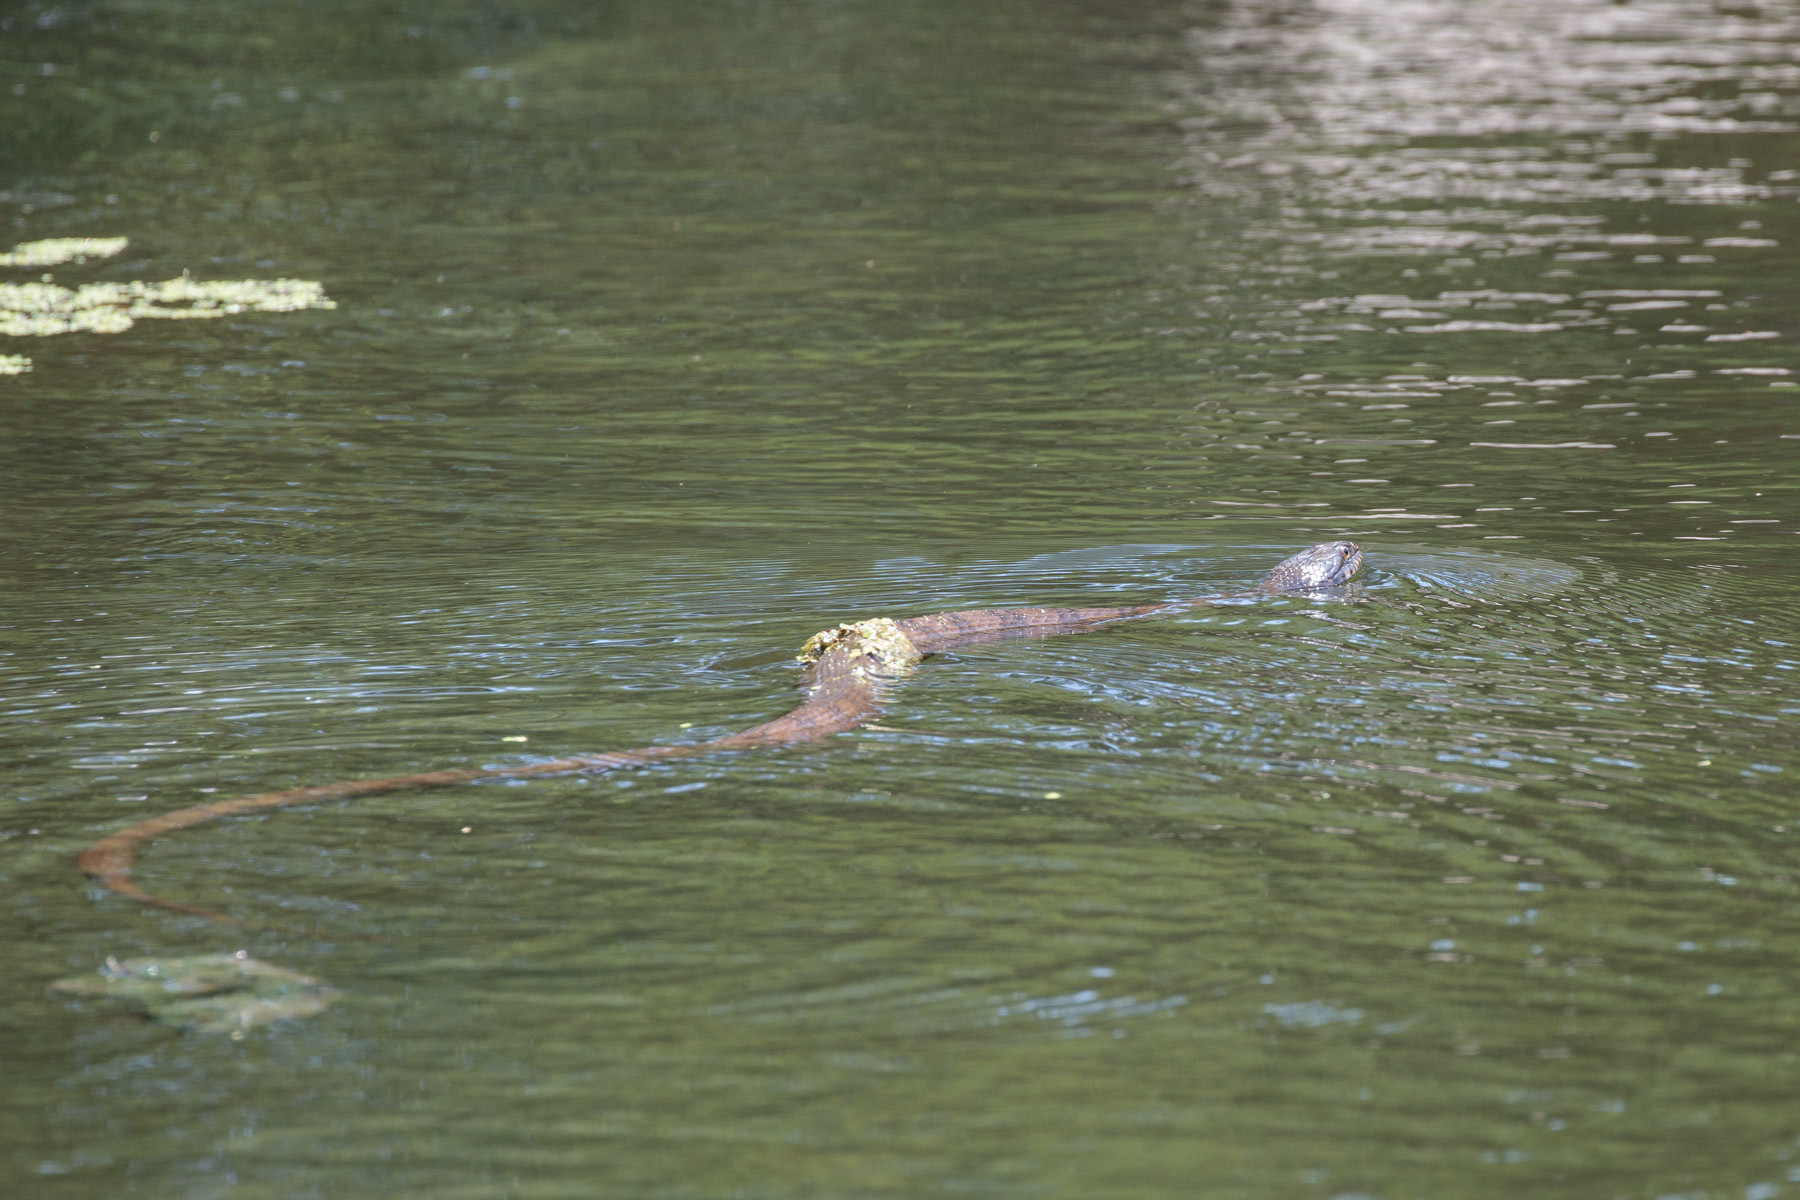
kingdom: Animalia
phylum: Chordata
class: Squamata
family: Colubridae
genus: Nerodia
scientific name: Nerodia erythrogaster
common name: Plainbelly water snake
